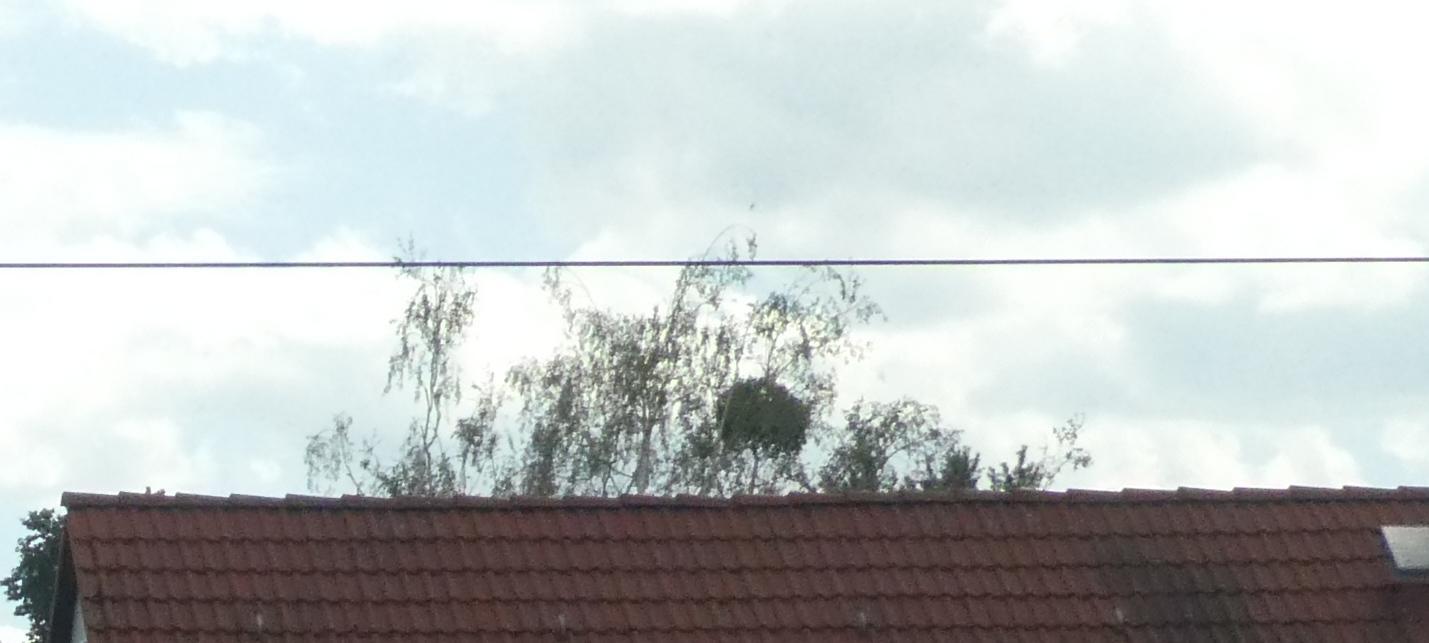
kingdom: Plantae
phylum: Tracheophyta
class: Magnoliopsida
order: Santalales
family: Viscaceae
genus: Viscum
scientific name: Viscum album
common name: Mistletoe
